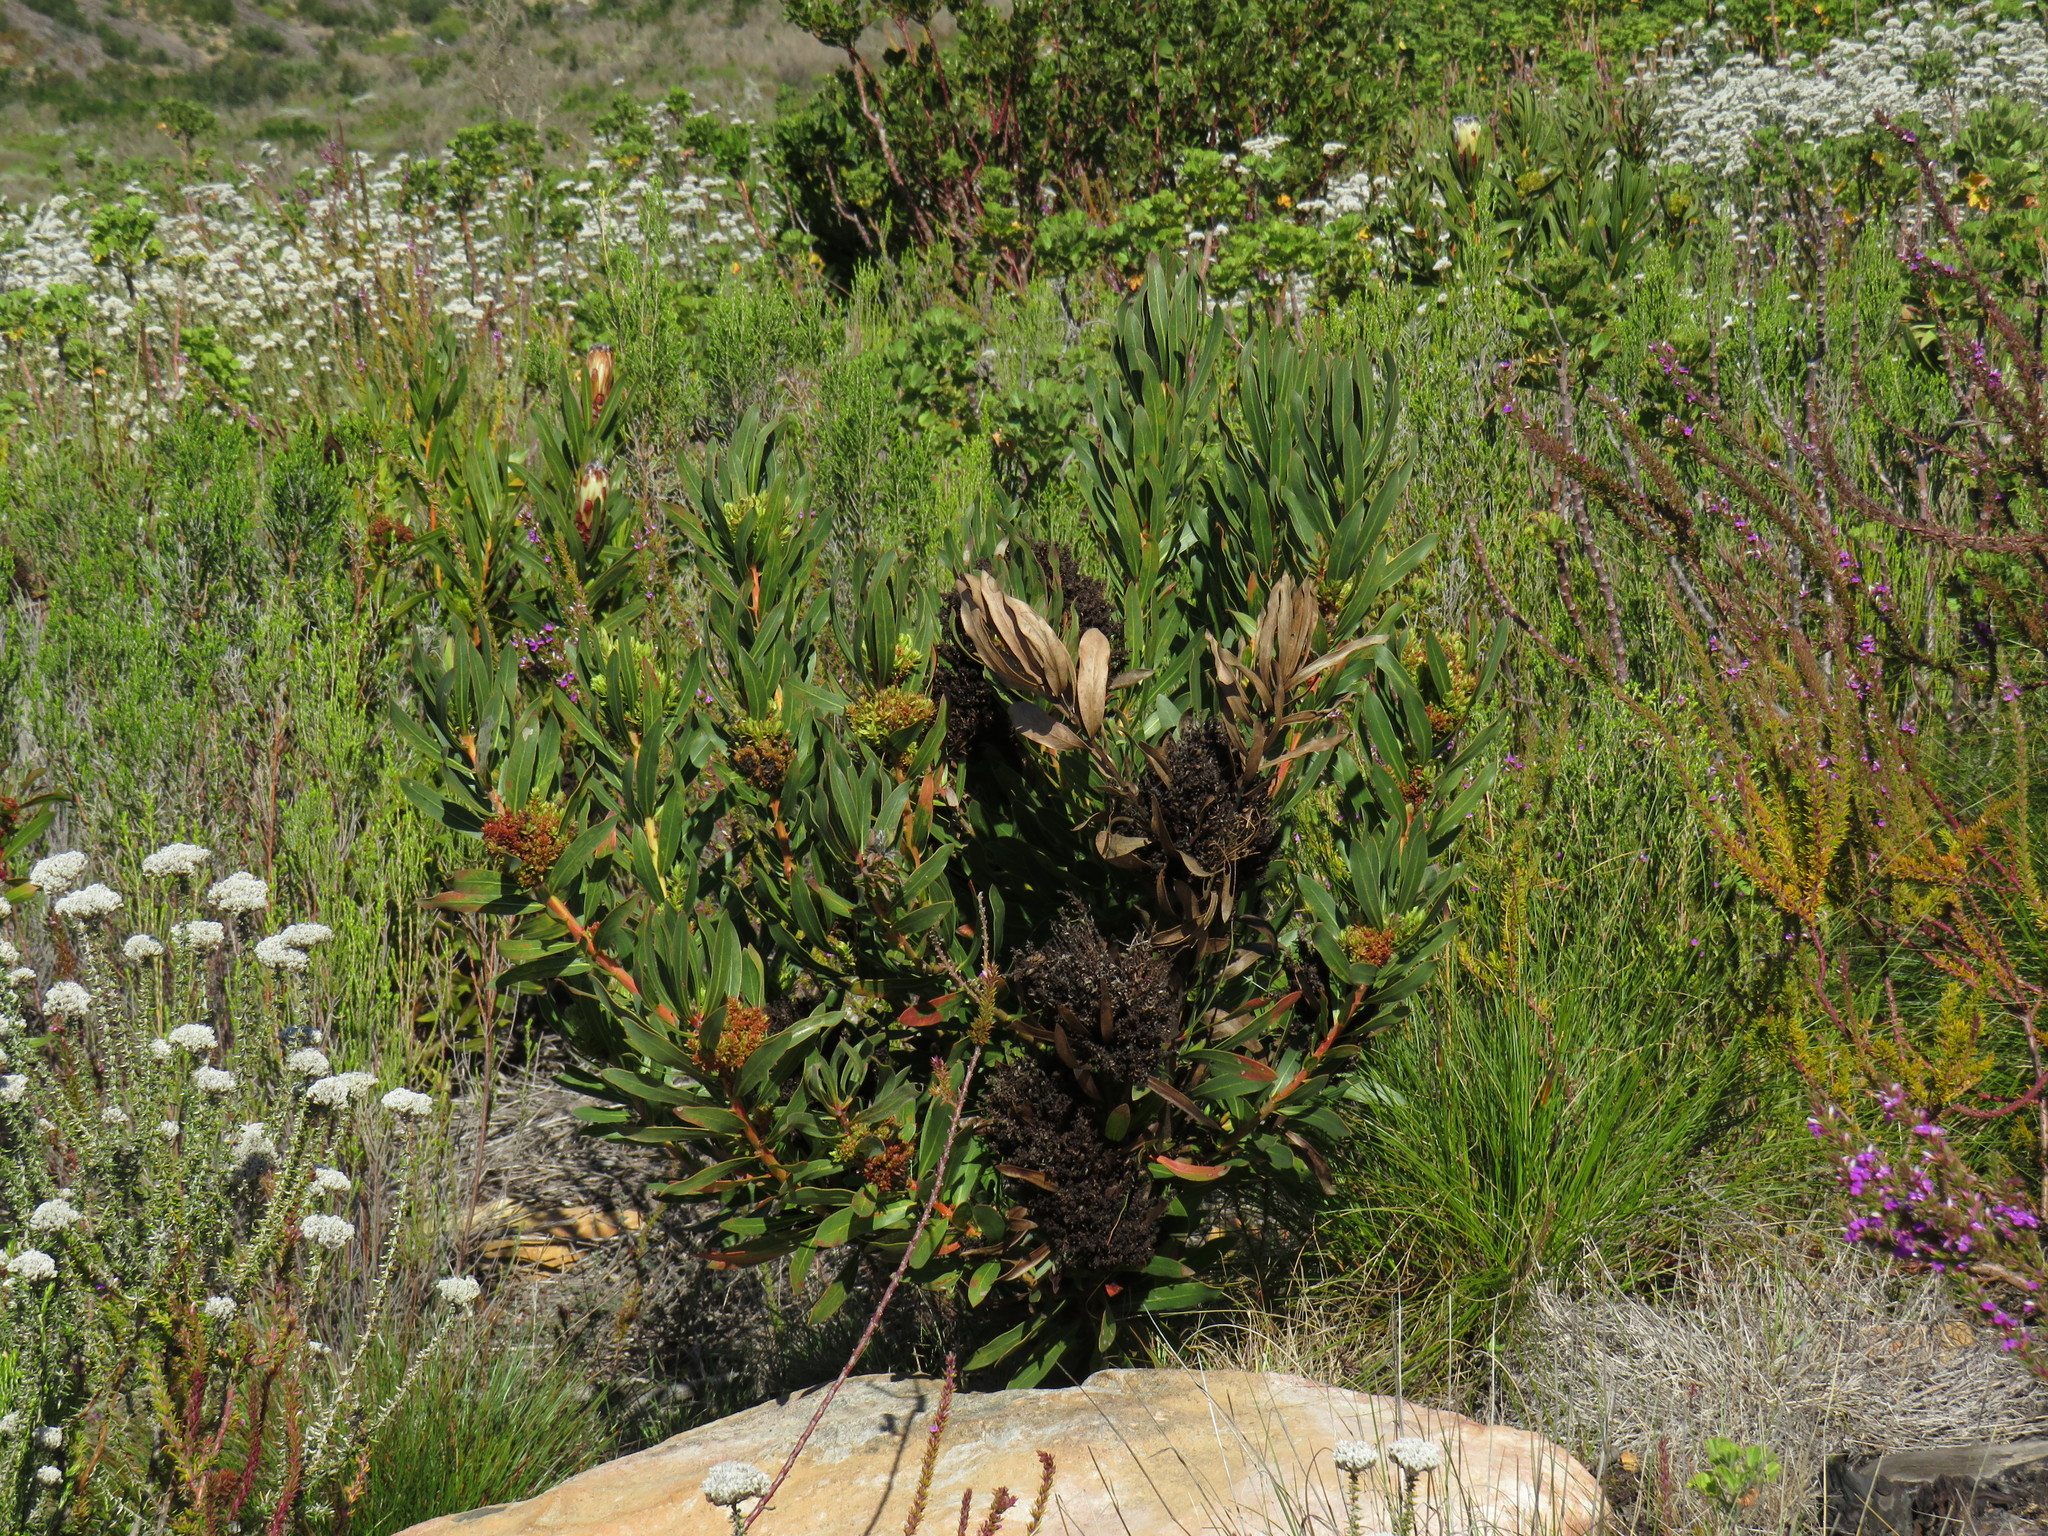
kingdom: Bacteria
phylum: Firmicutes
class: Bacilli
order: Acholeplasmatales
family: Acholeplasmataceae
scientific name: Acholeplasmataceae
